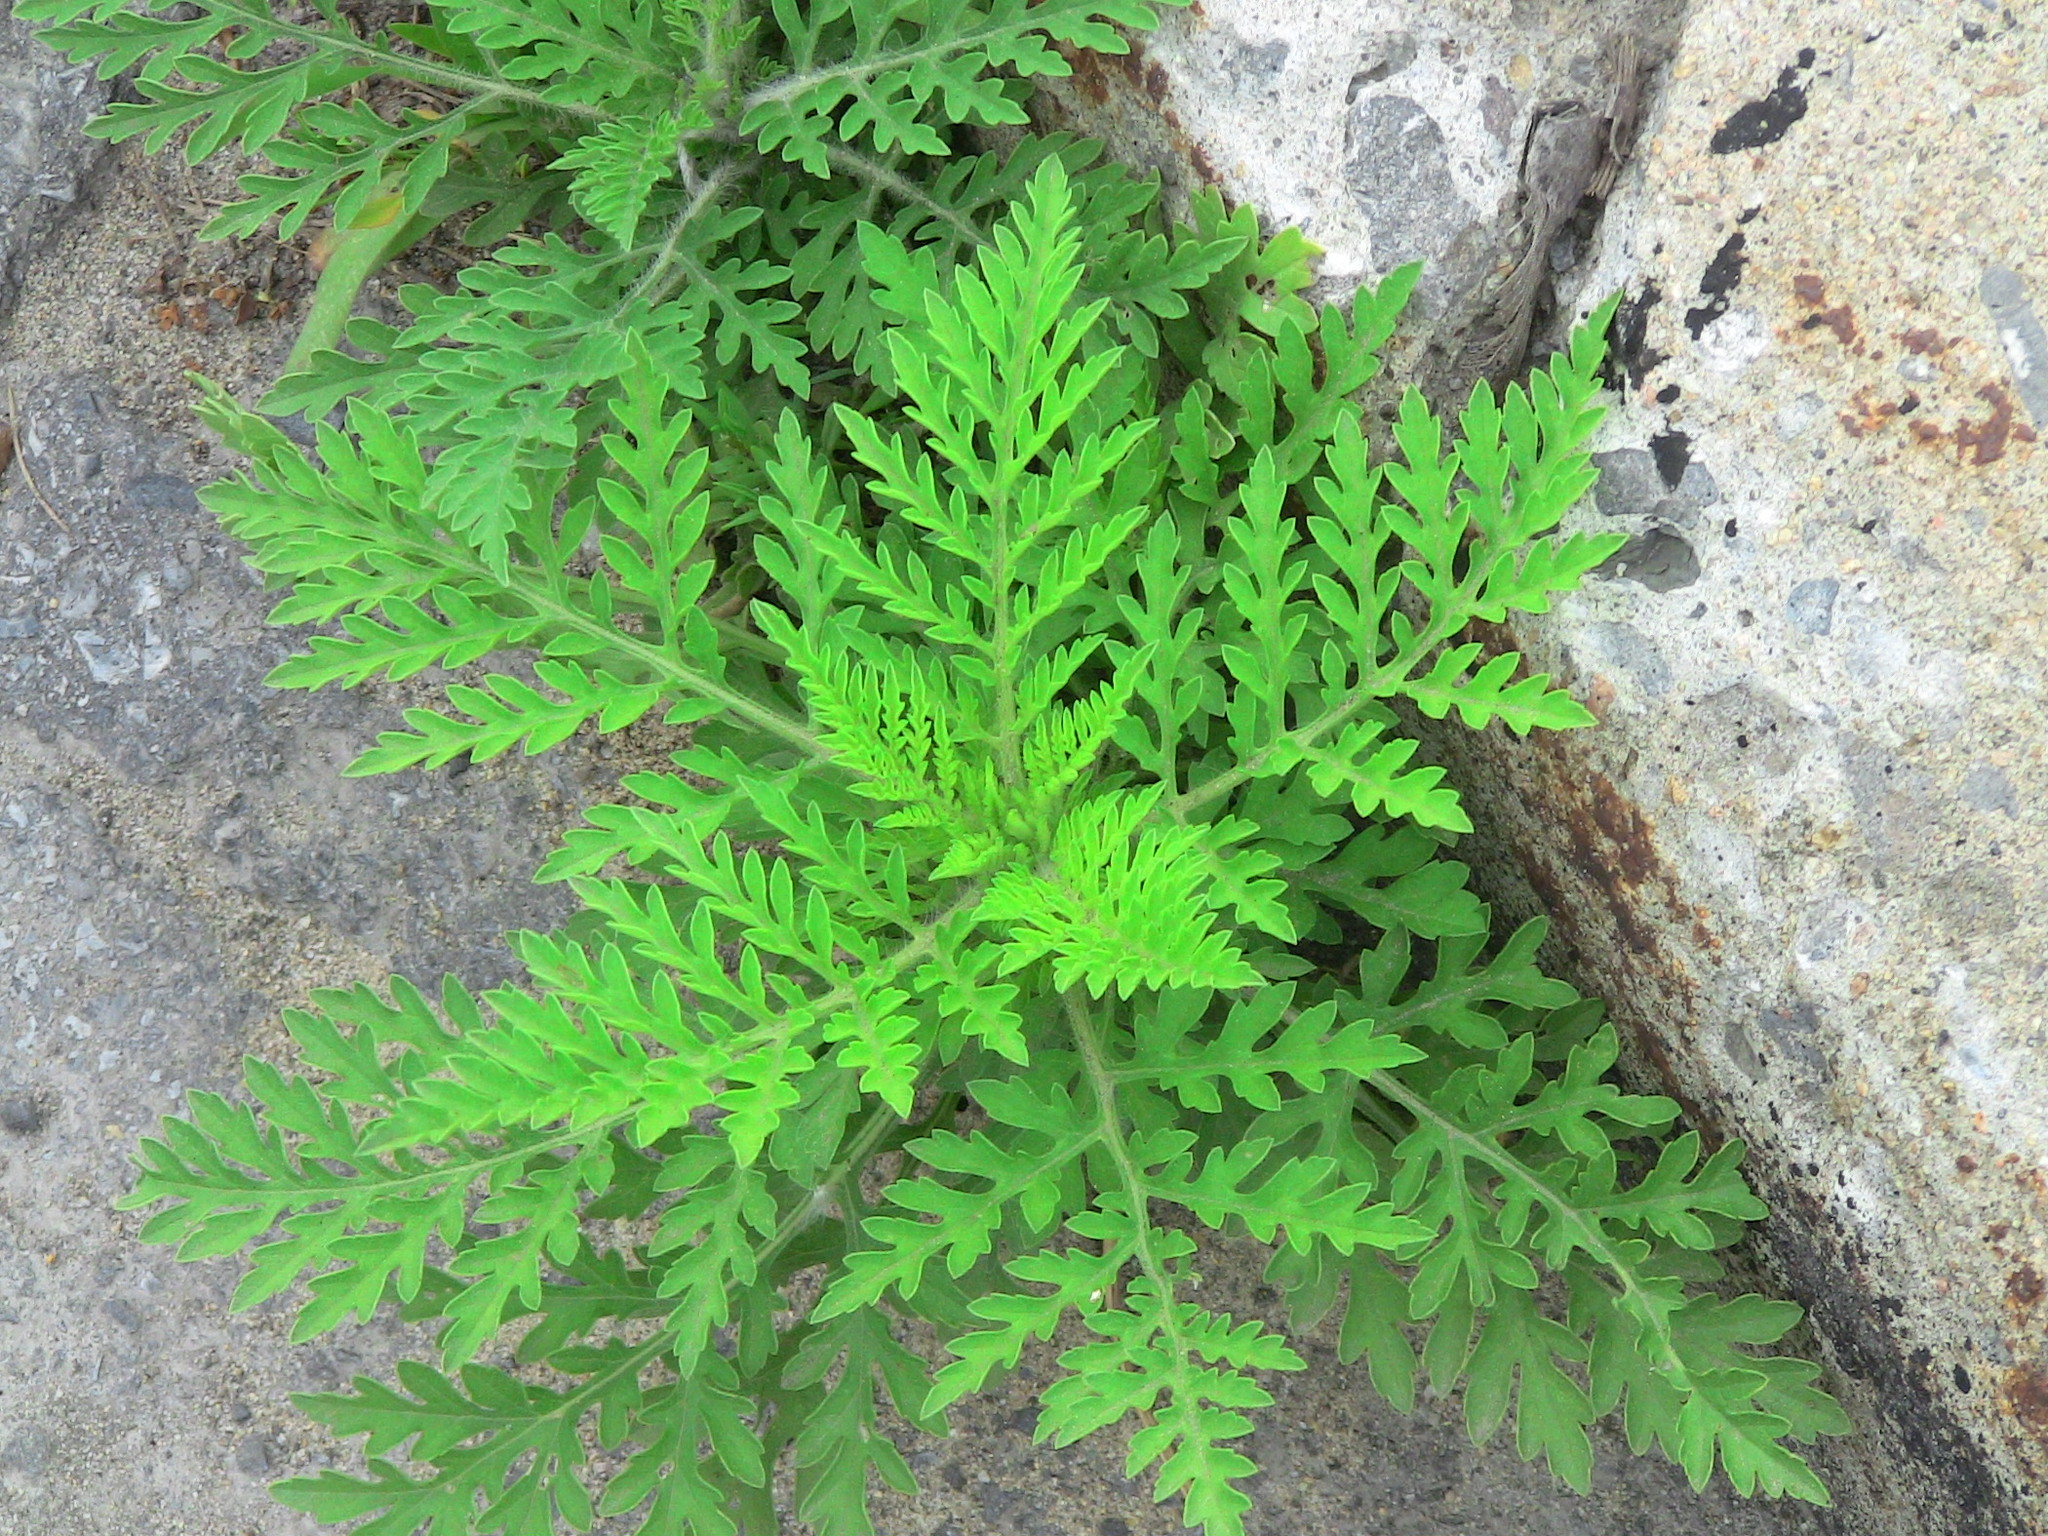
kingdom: Plantae
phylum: Tracheophyta
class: Magnoliopsida
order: Asterales
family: Asteraceae
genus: Ambrosia
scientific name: Ambrosia artemisiifolia
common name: Annual ragweed
